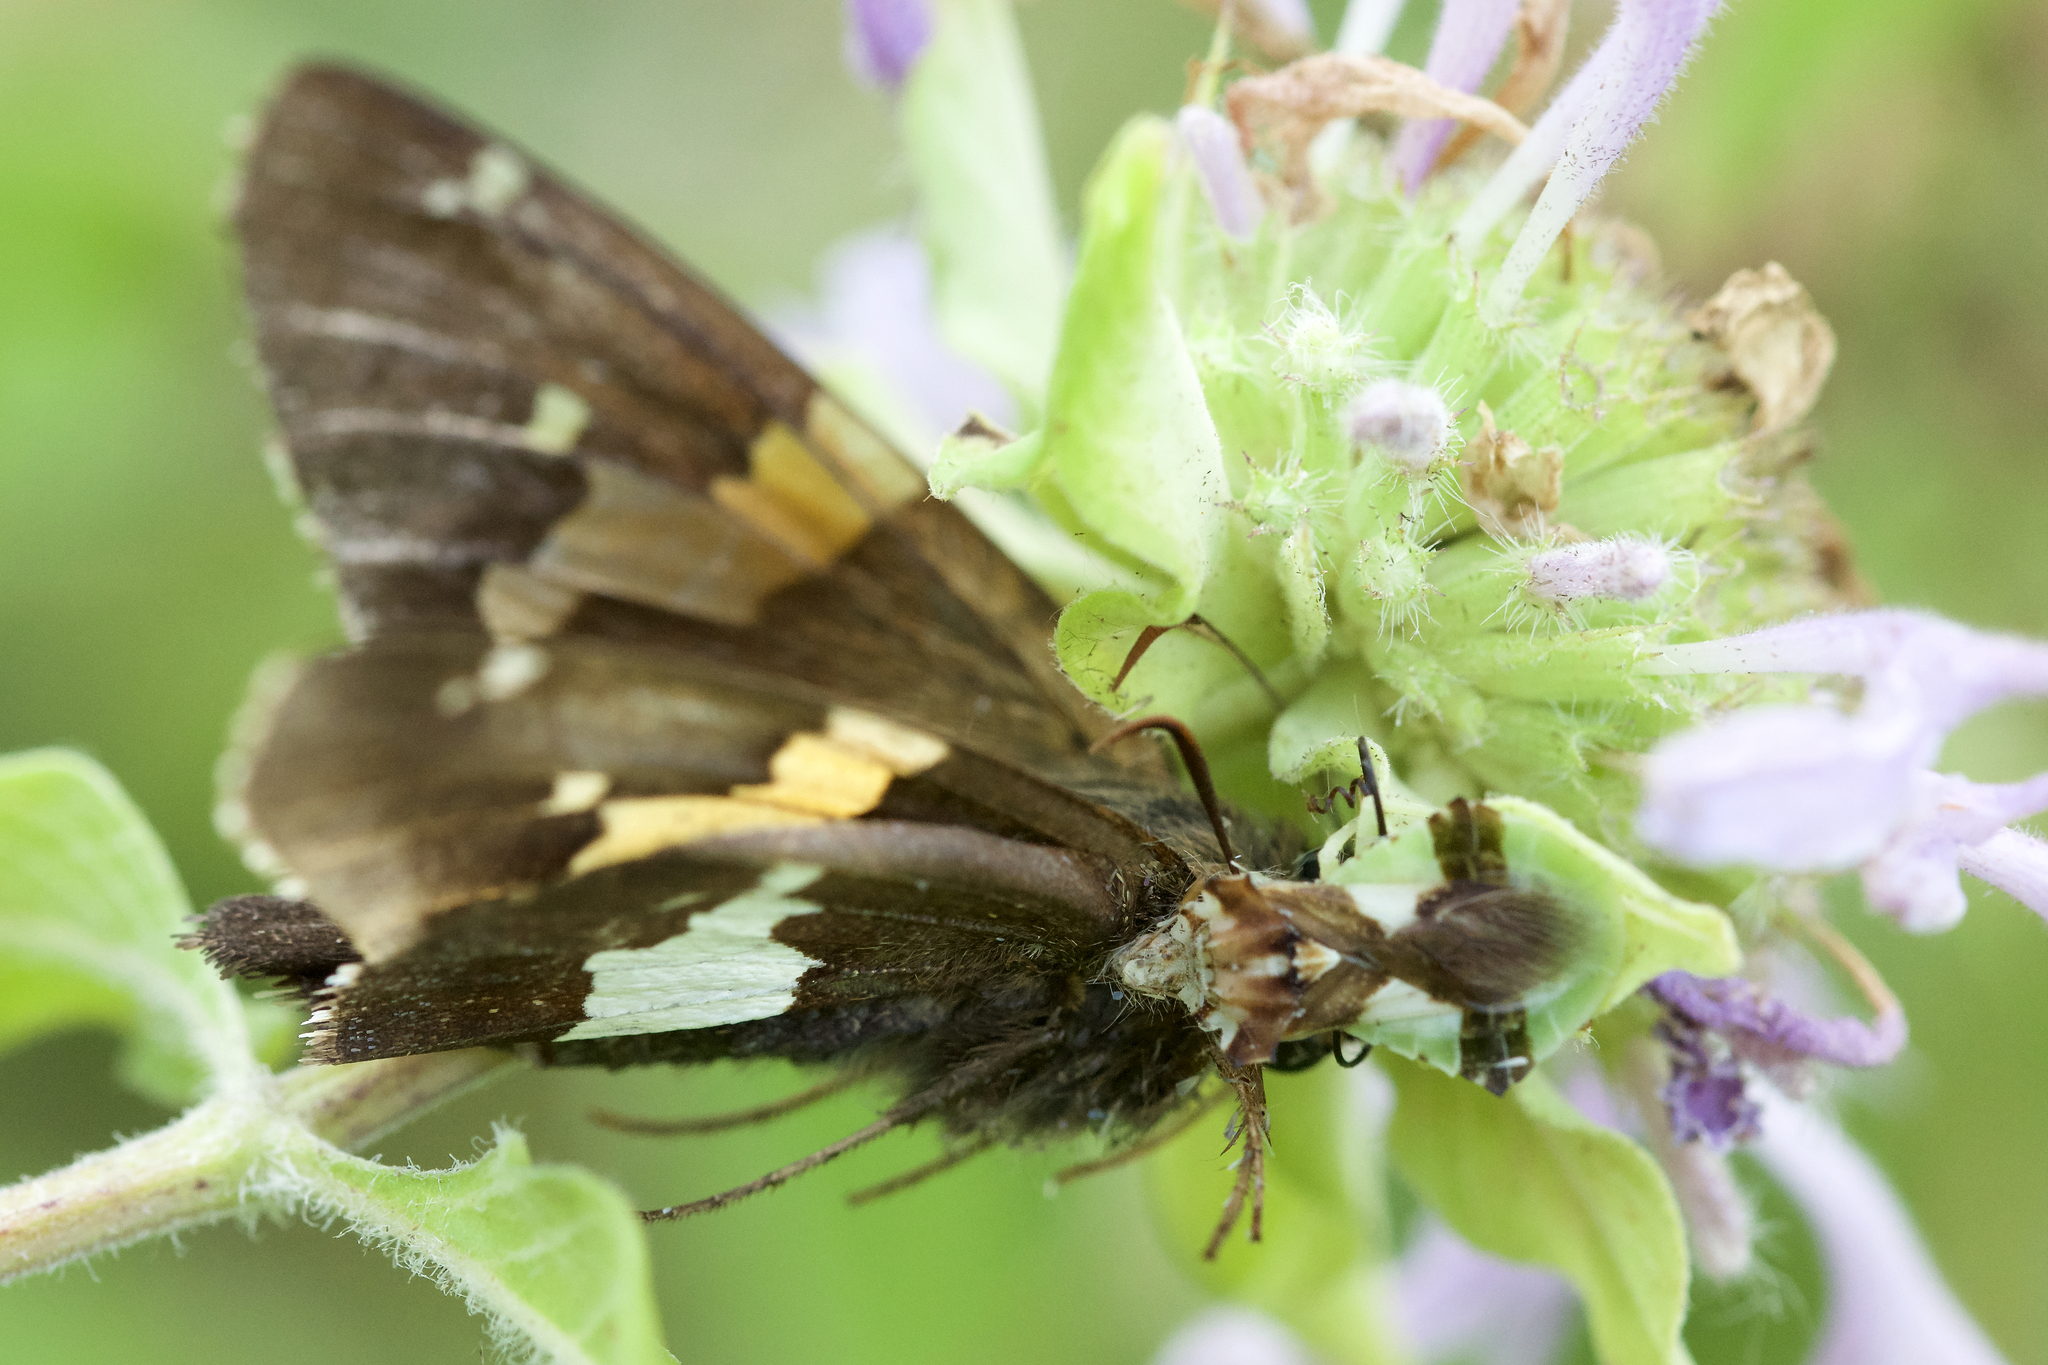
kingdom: Animalia
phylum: Arthropoda
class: Insecta
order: Hemiptera
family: Reduviidae
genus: Phymata
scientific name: Phymata americana
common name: Jagged ambush bug
